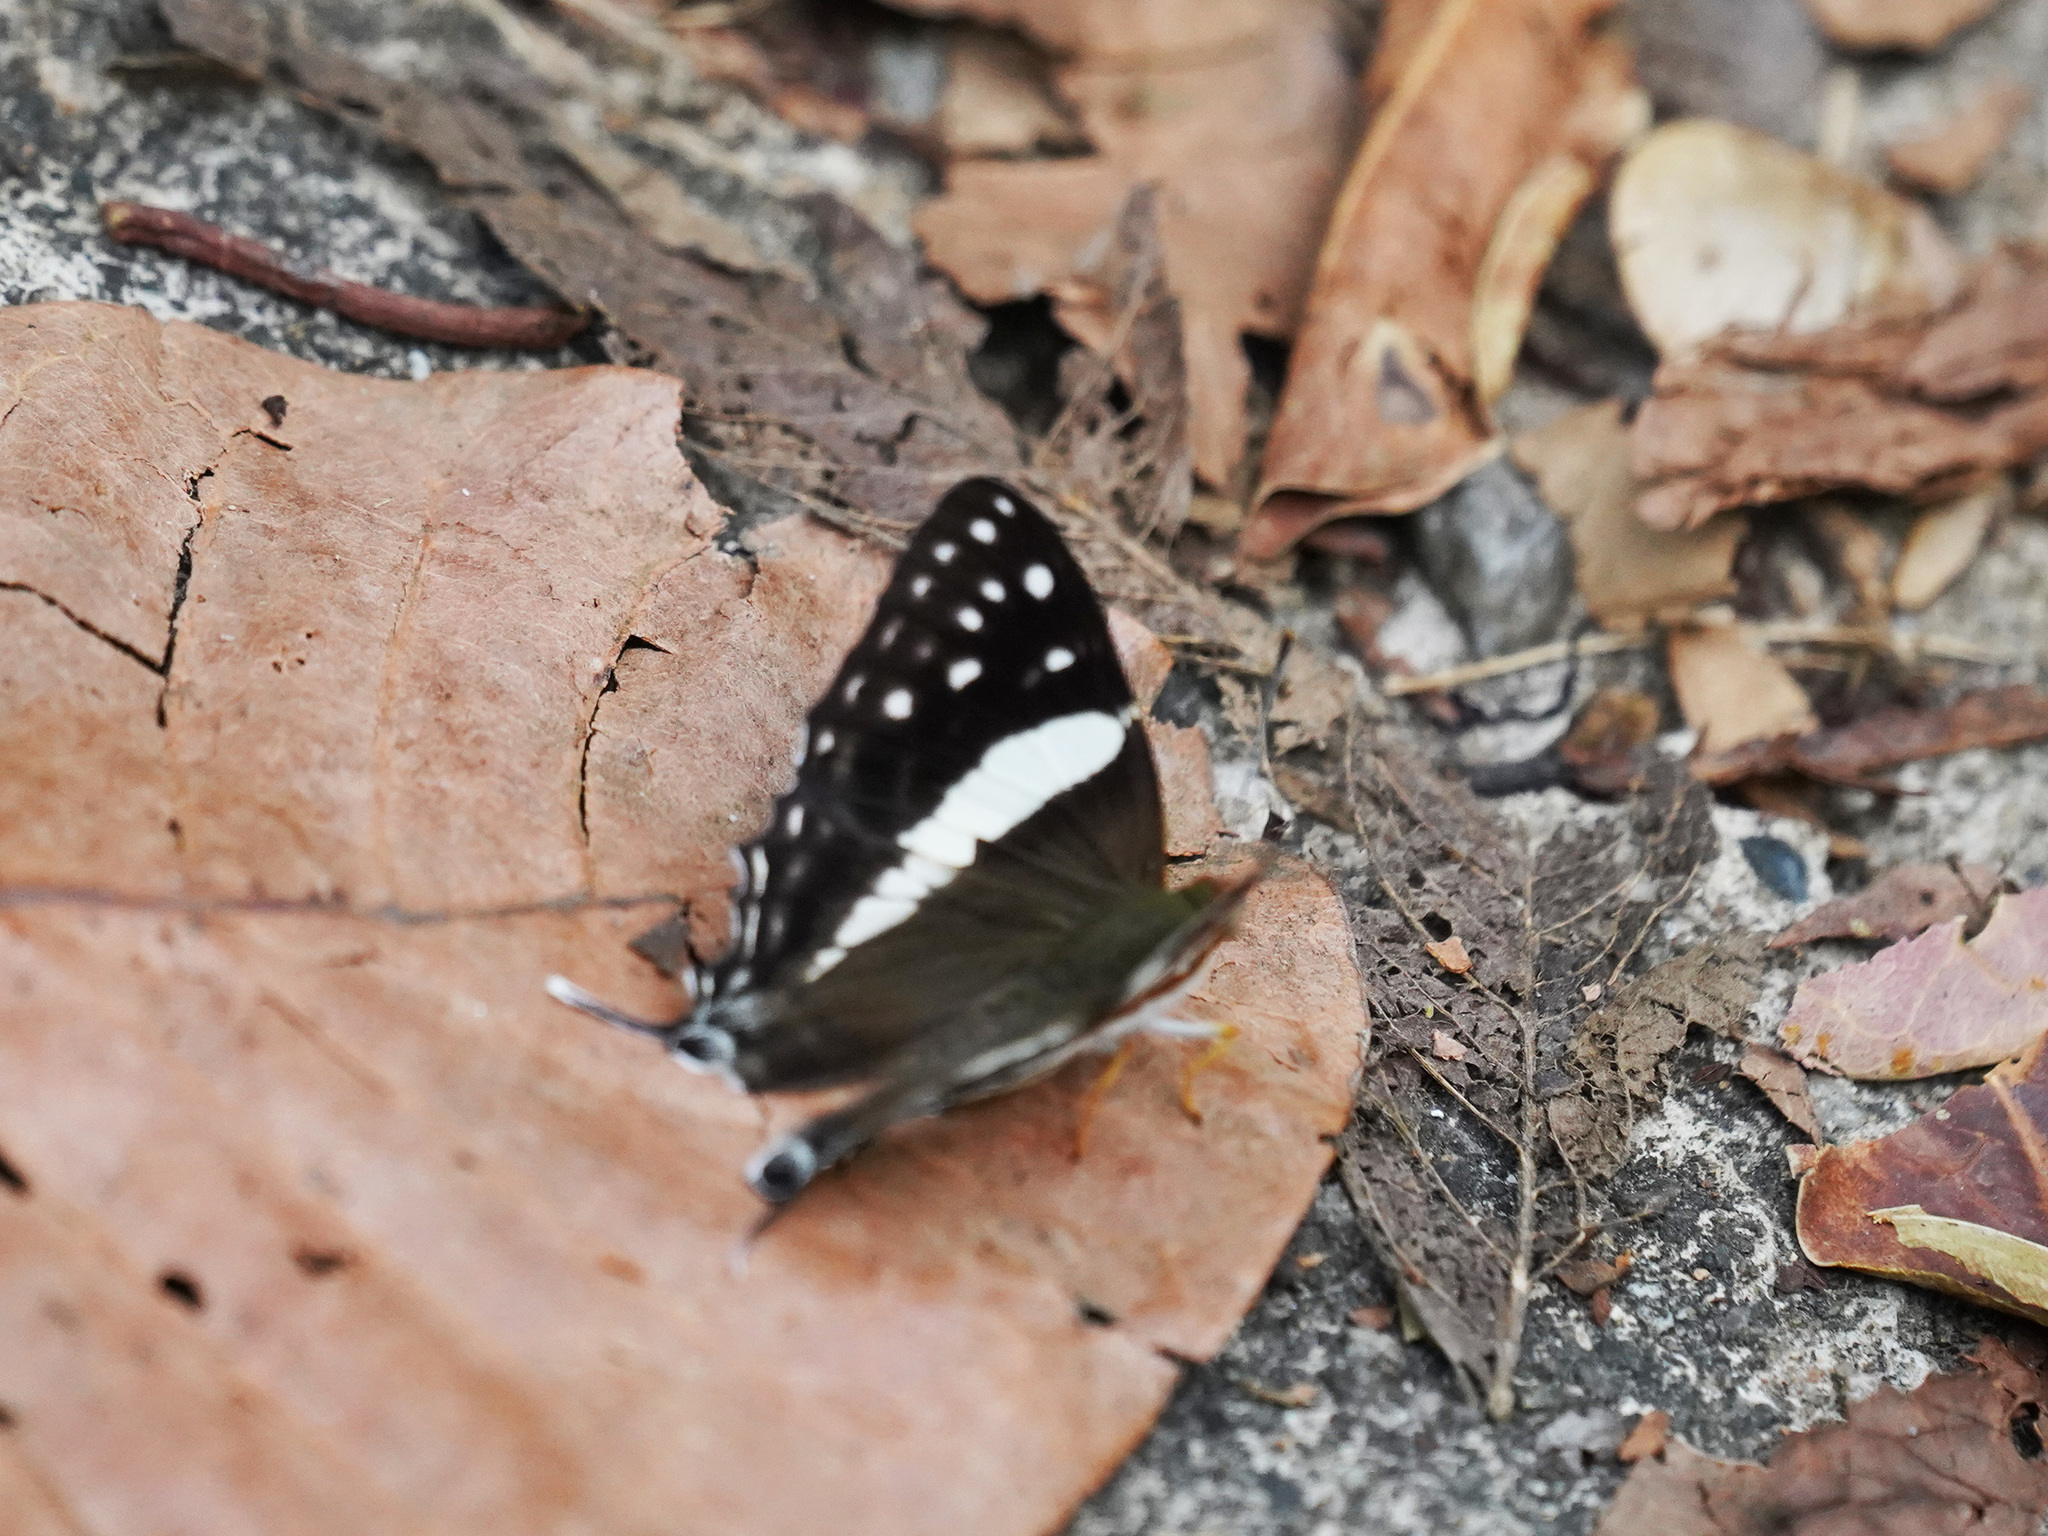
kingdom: Animalia
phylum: Arthropoda
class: Insecta
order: Lepidoptera
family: Lycaenidae
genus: Dodona
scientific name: Dodona deodata
